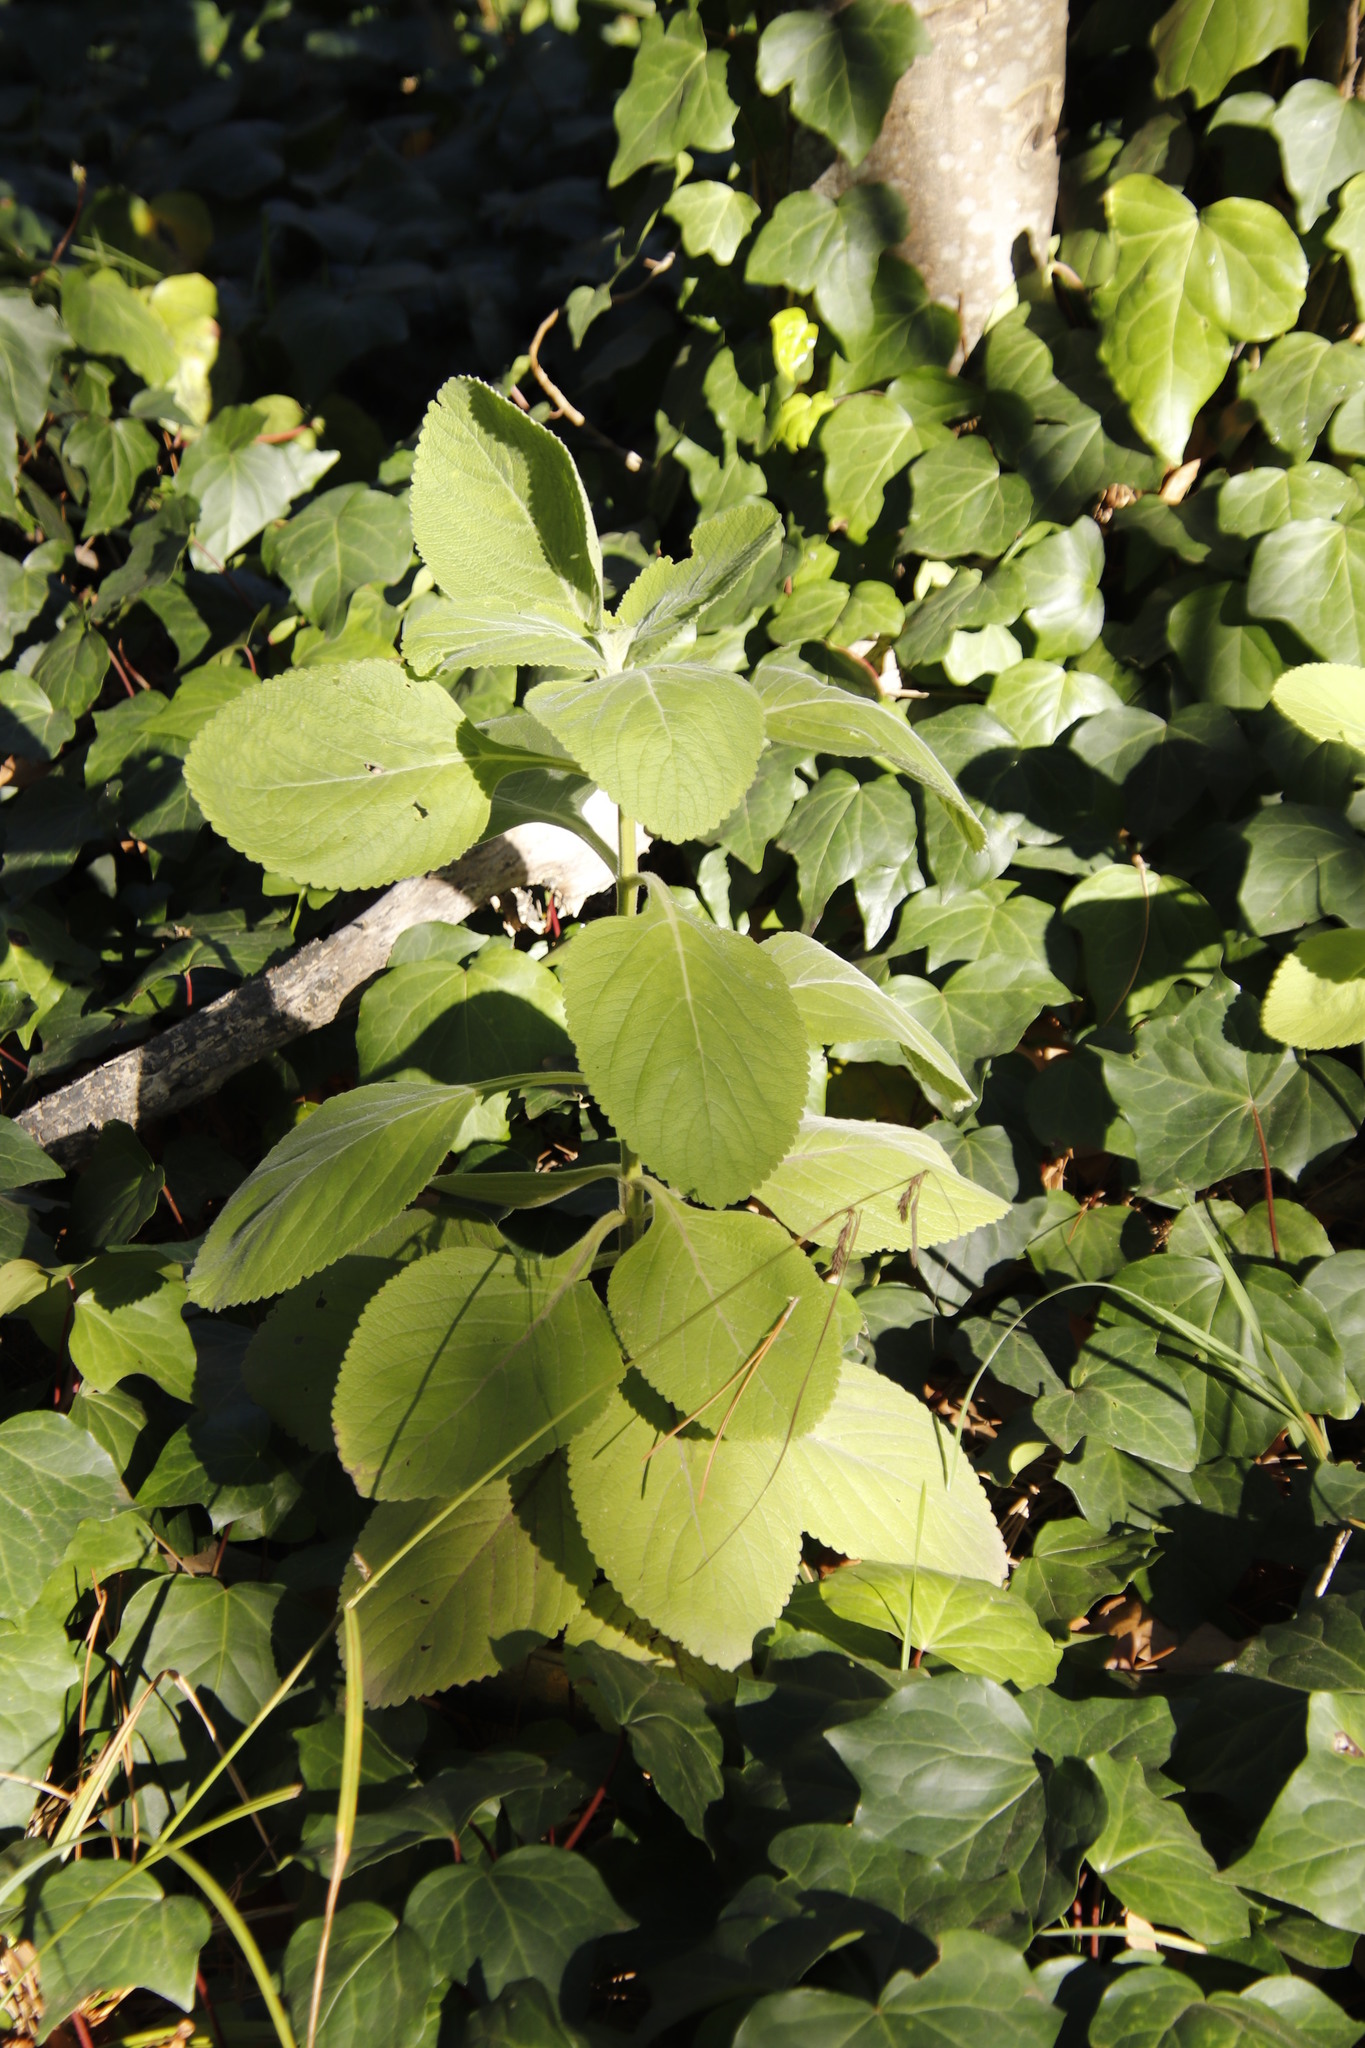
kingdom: Plantae
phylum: Tracheophyta
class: Magnoliopsida
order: Lamiales
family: Lamiaceae
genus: Coleus
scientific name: Coleus barbatus
